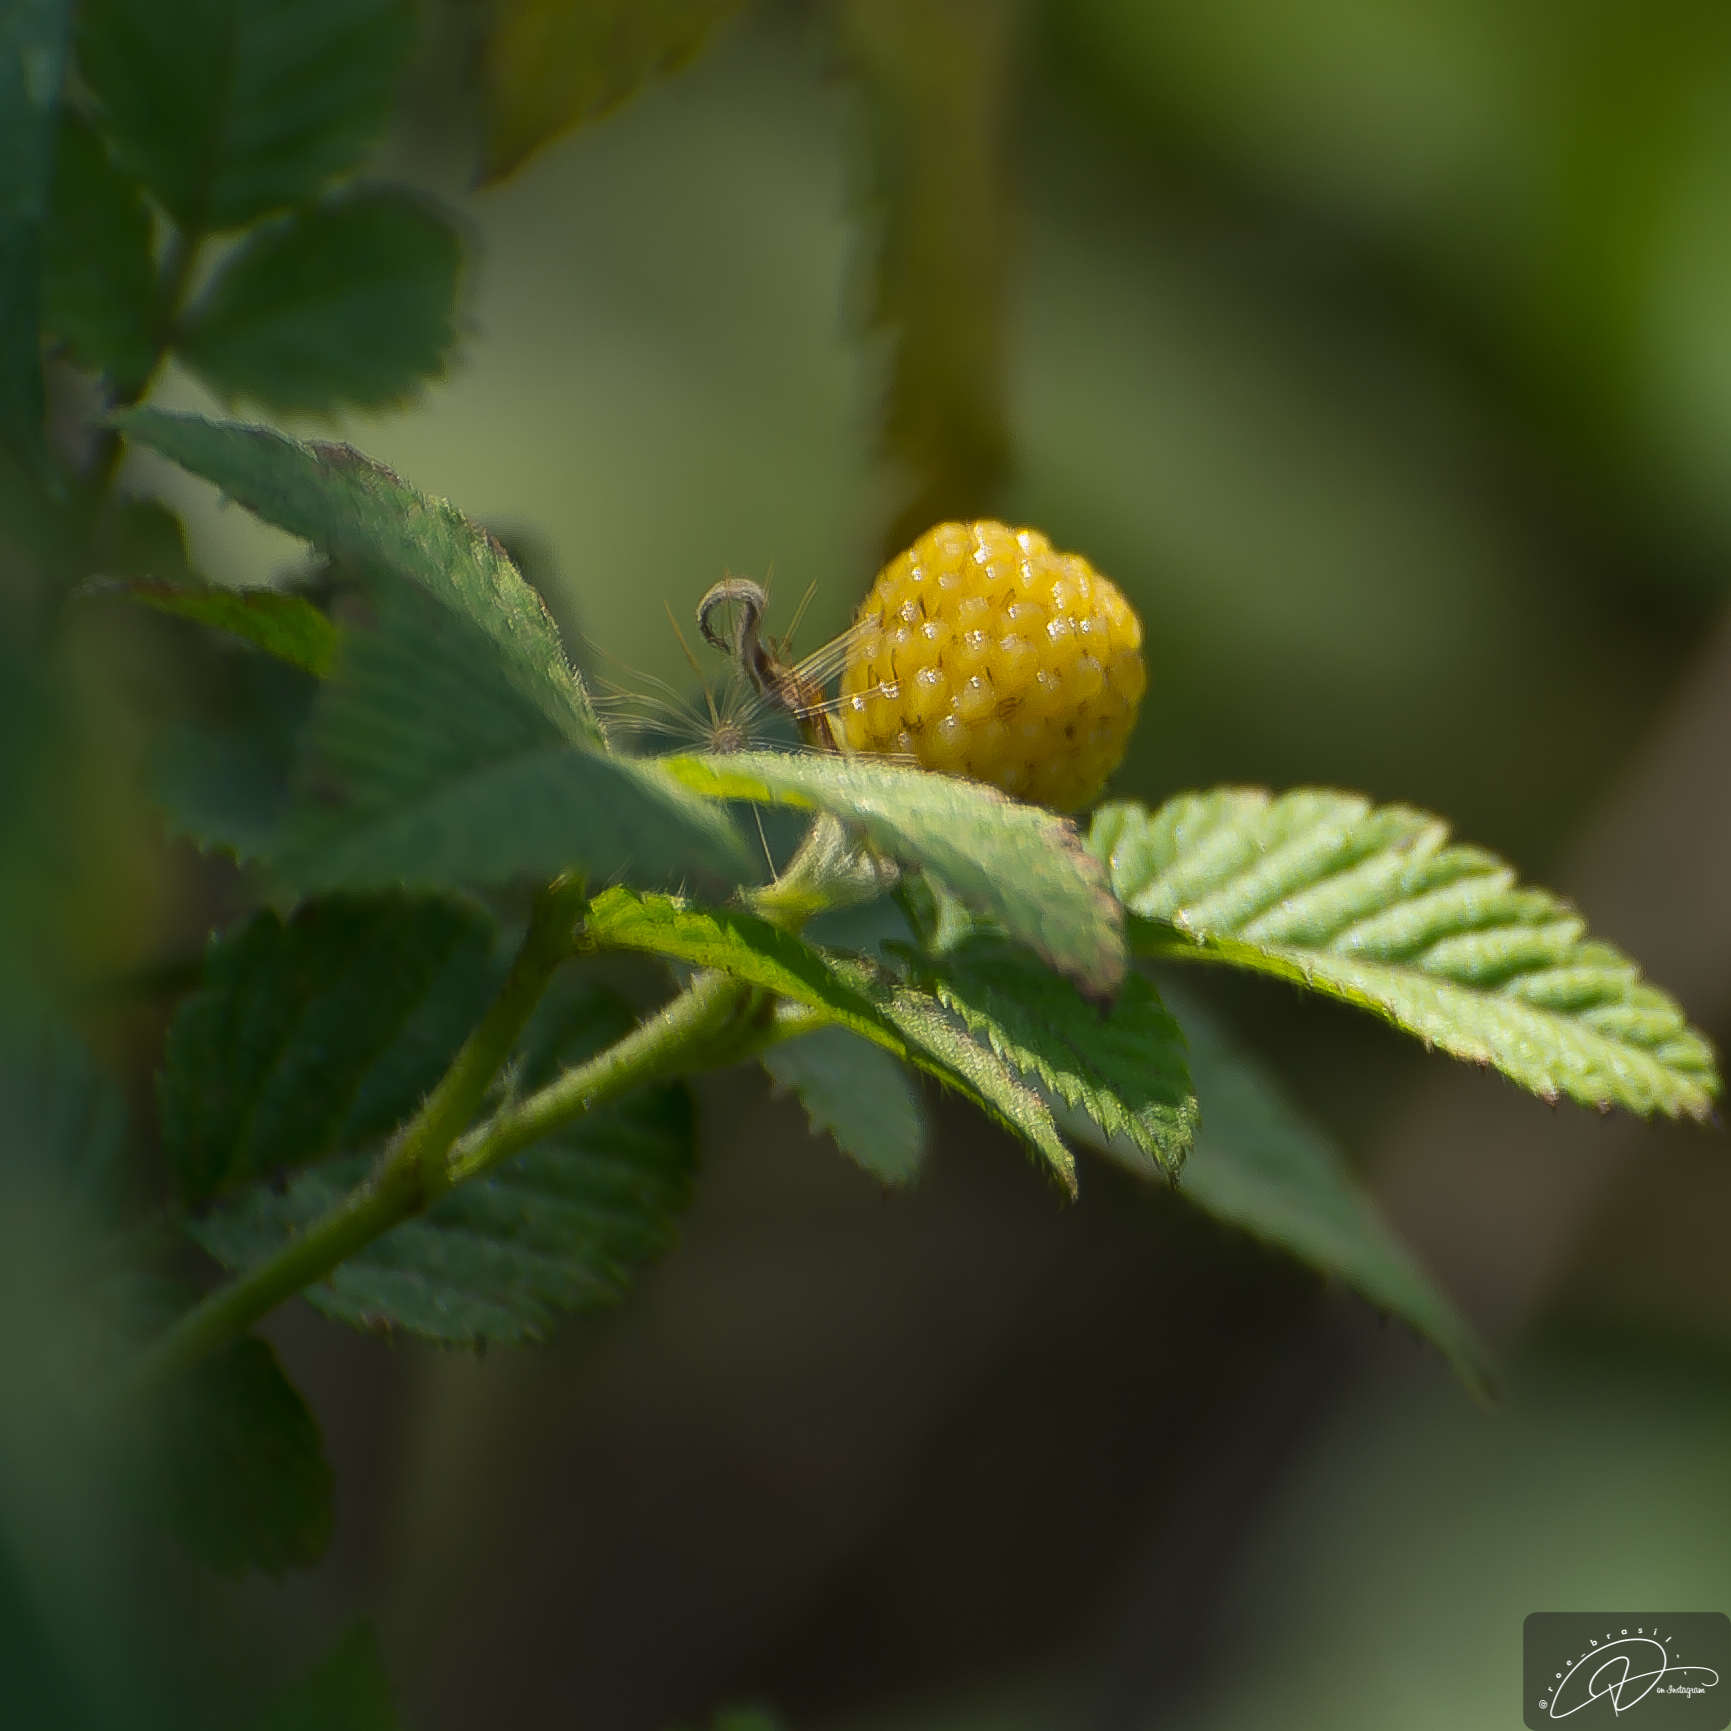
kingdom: Plantae
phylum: Tracheophyta
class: Magnoliopsida
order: Rosales
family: Rosaceae
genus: Rubus
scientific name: Rubus rosifolius
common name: Roseleaf raspberry
